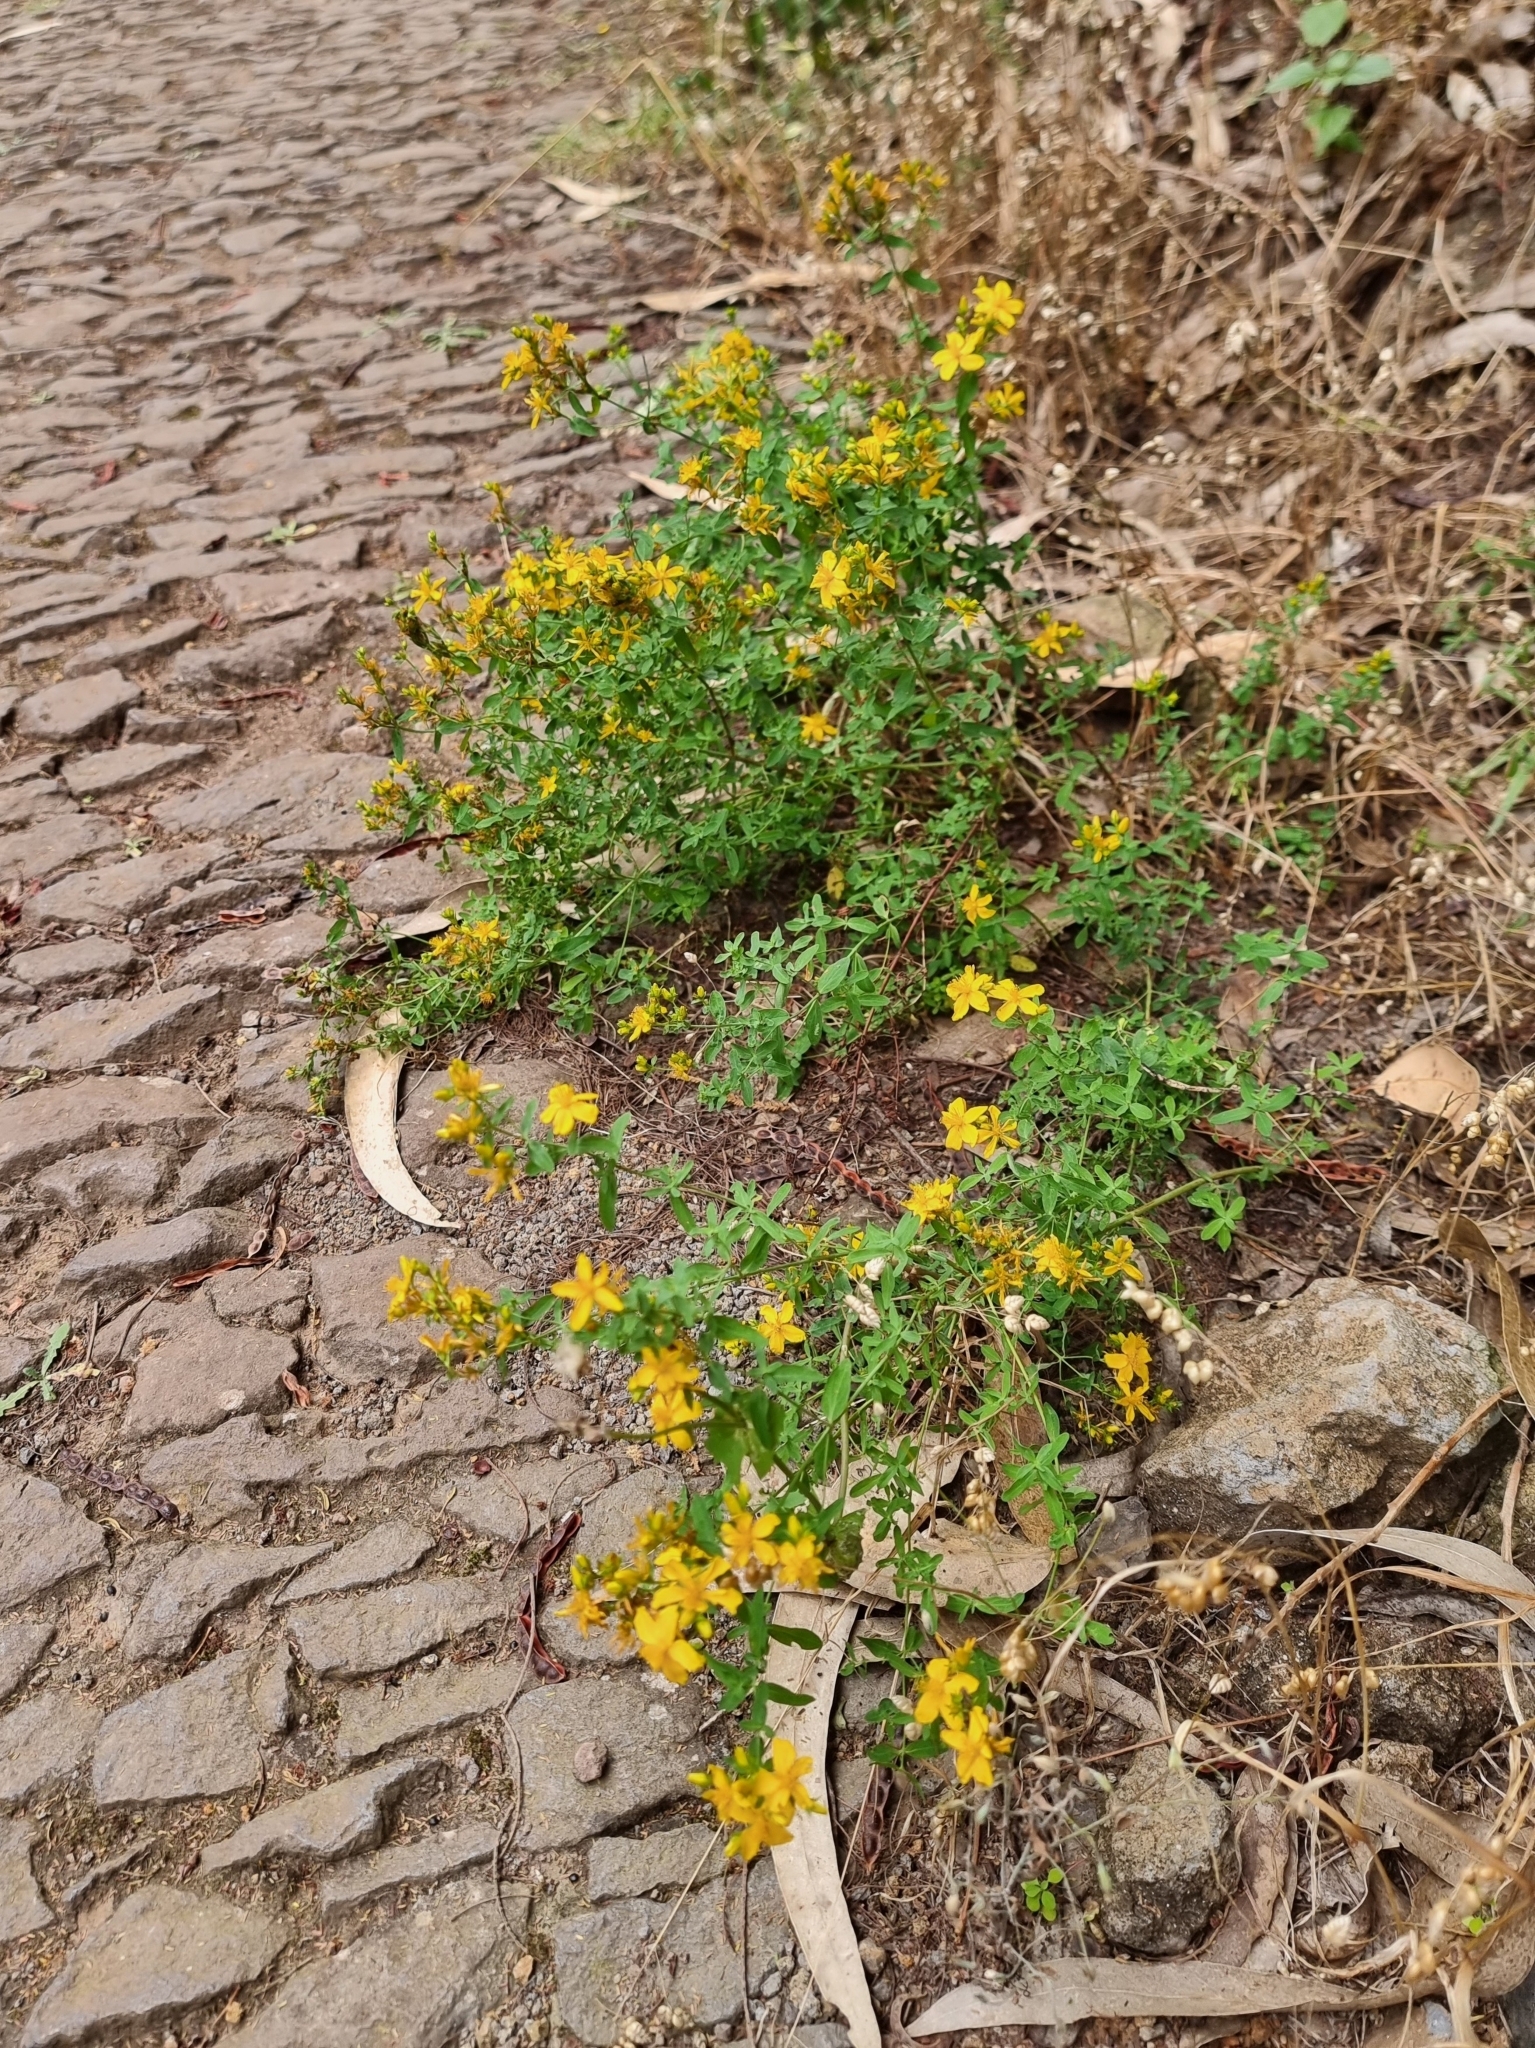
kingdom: Plantae
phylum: Tracheophyta
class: Magnoliopsida
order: Malpighiales
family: Hypericaceae
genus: Hypericum
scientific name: Hypericum perforatum
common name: Common st. johnswort
